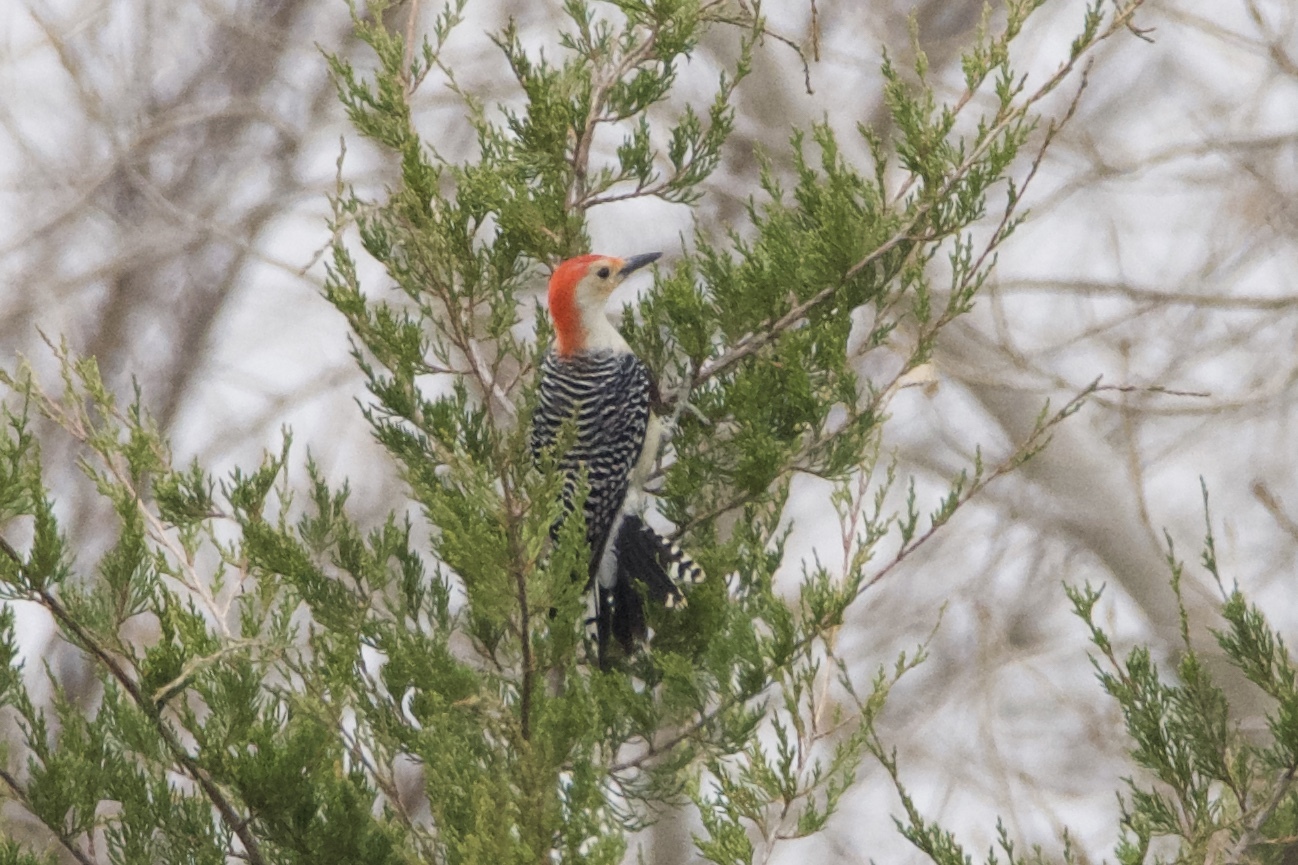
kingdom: Animalia
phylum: Chordata
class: Aves
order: Piciformes
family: Picidae
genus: Melanerpes
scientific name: Melanerpes carolinus
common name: Red-bellied woodpecker
